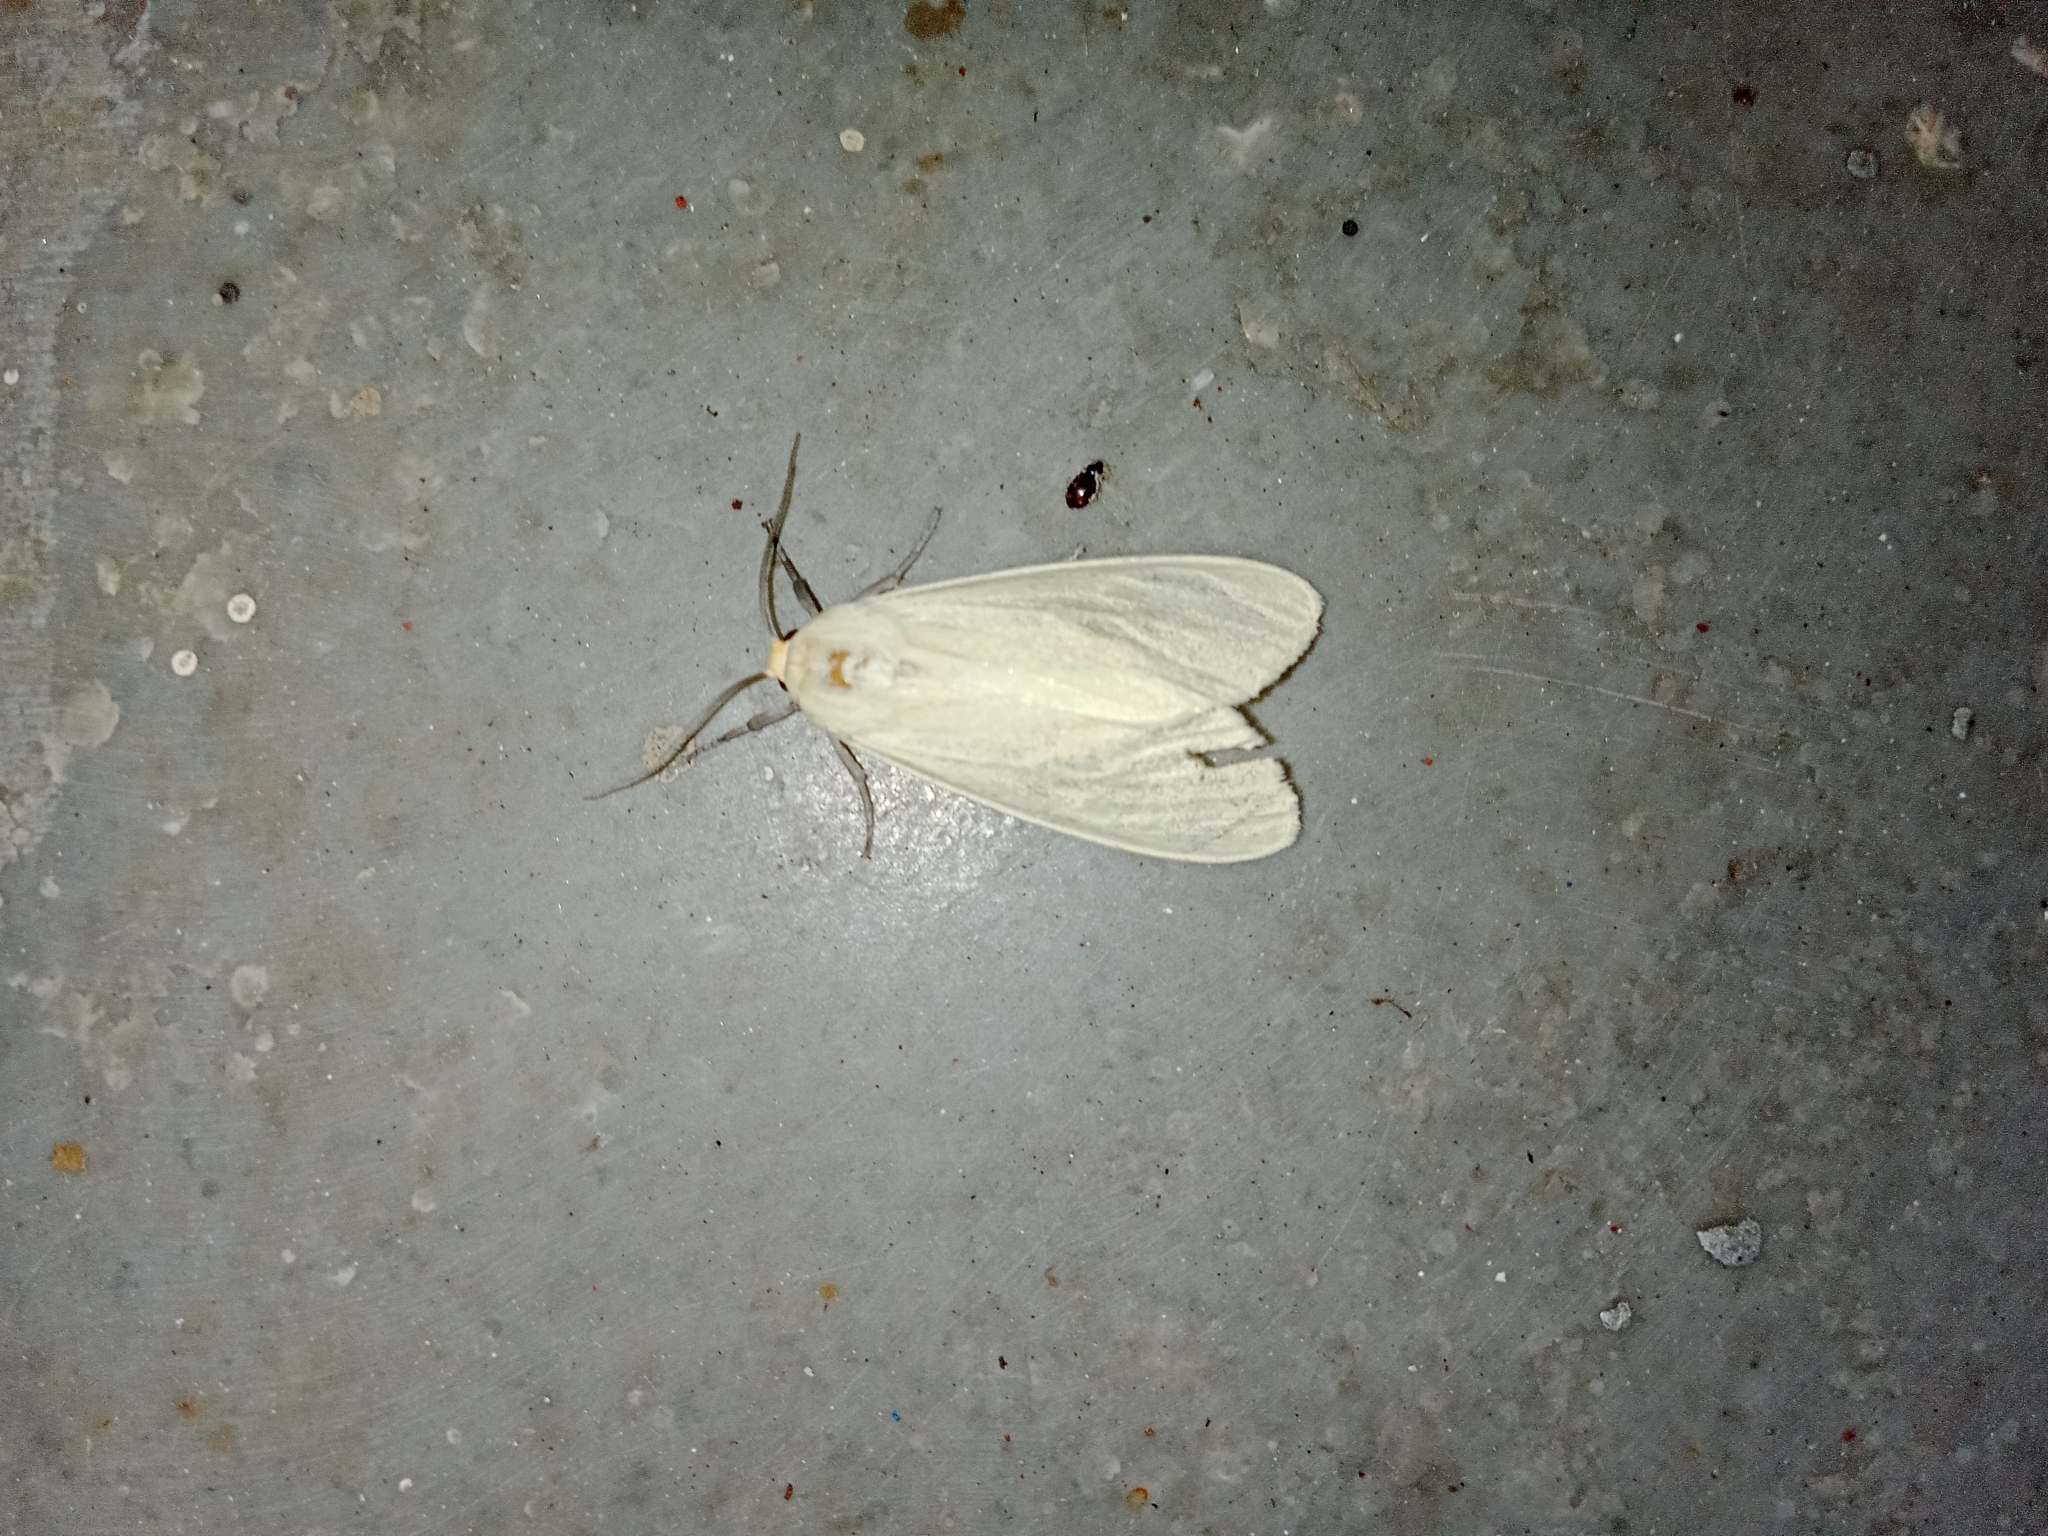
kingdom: Animalia
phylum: Arthropoda
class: Insecta
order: Lepidoptera
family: Erebidae
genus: Pareuchaetes
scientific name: Pareuchaetes pseudoinsulata
